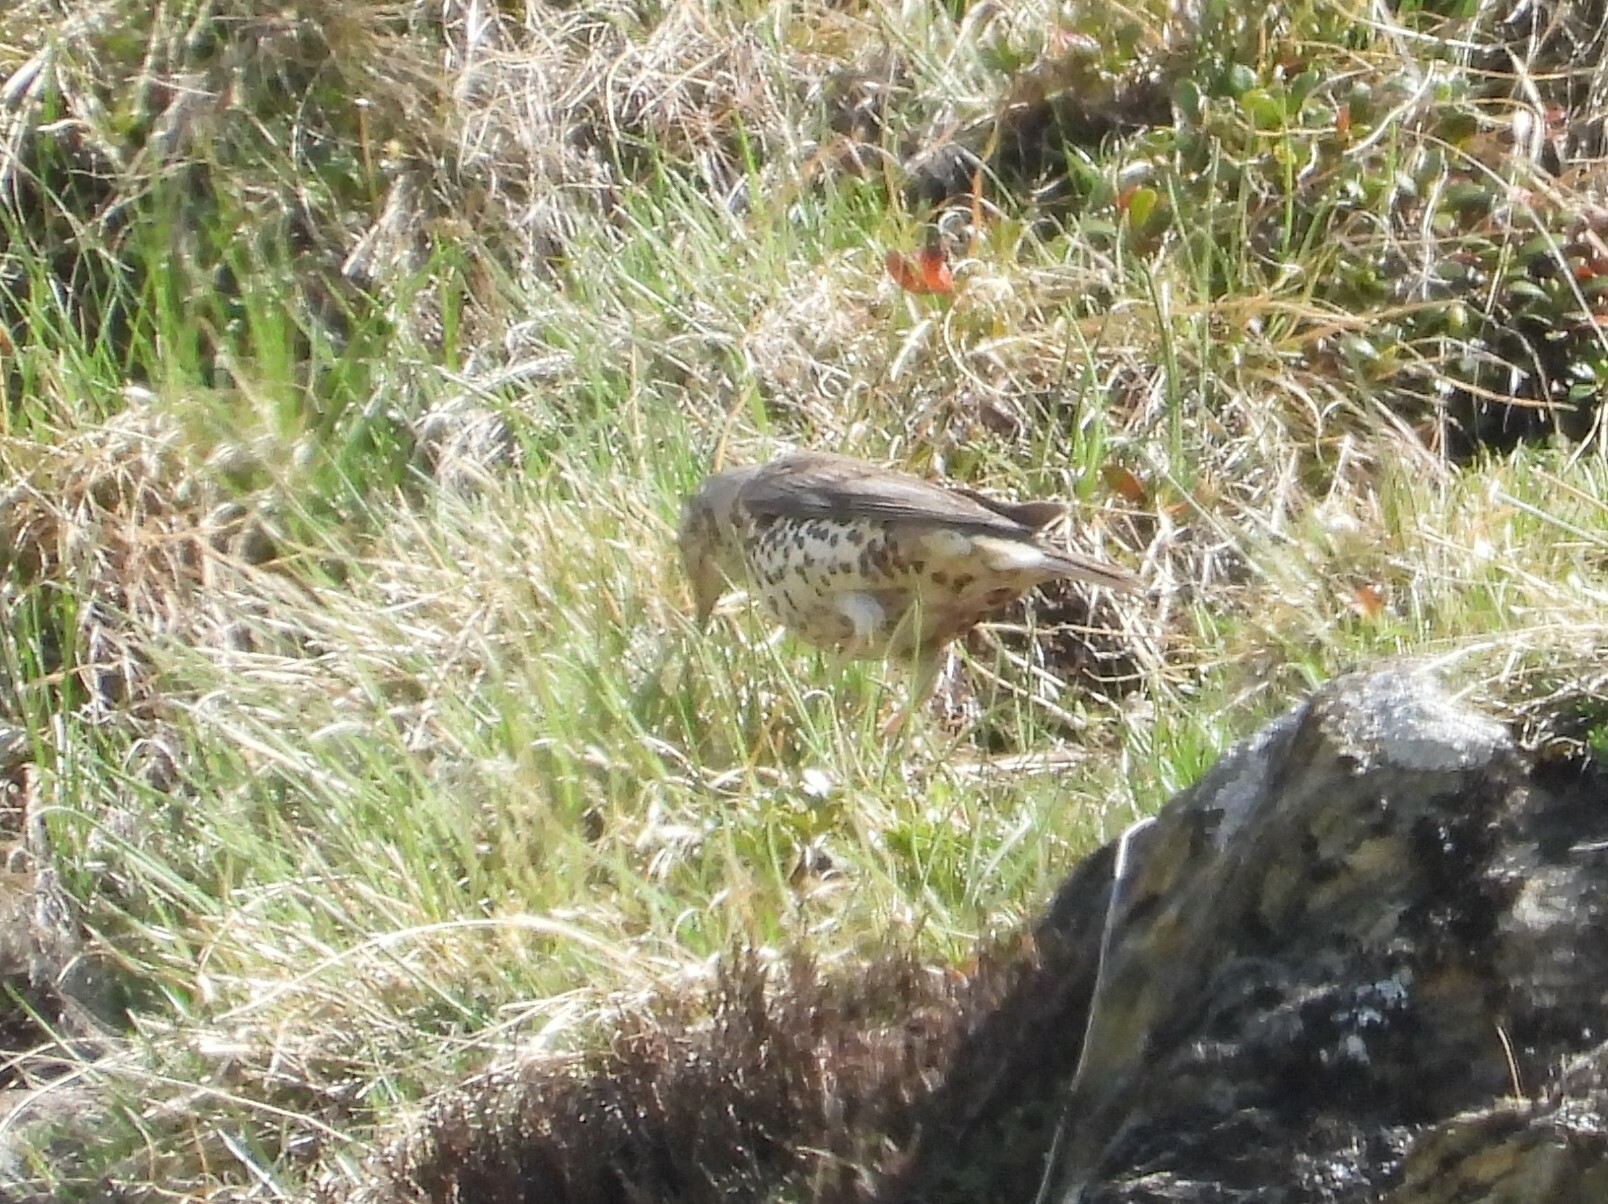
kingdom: Animalia
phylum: Chordata
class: Aves
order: Passeriformes
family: Turdidae
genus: Turdus
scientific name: Turdus viscivorus
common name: Mistle thrush
